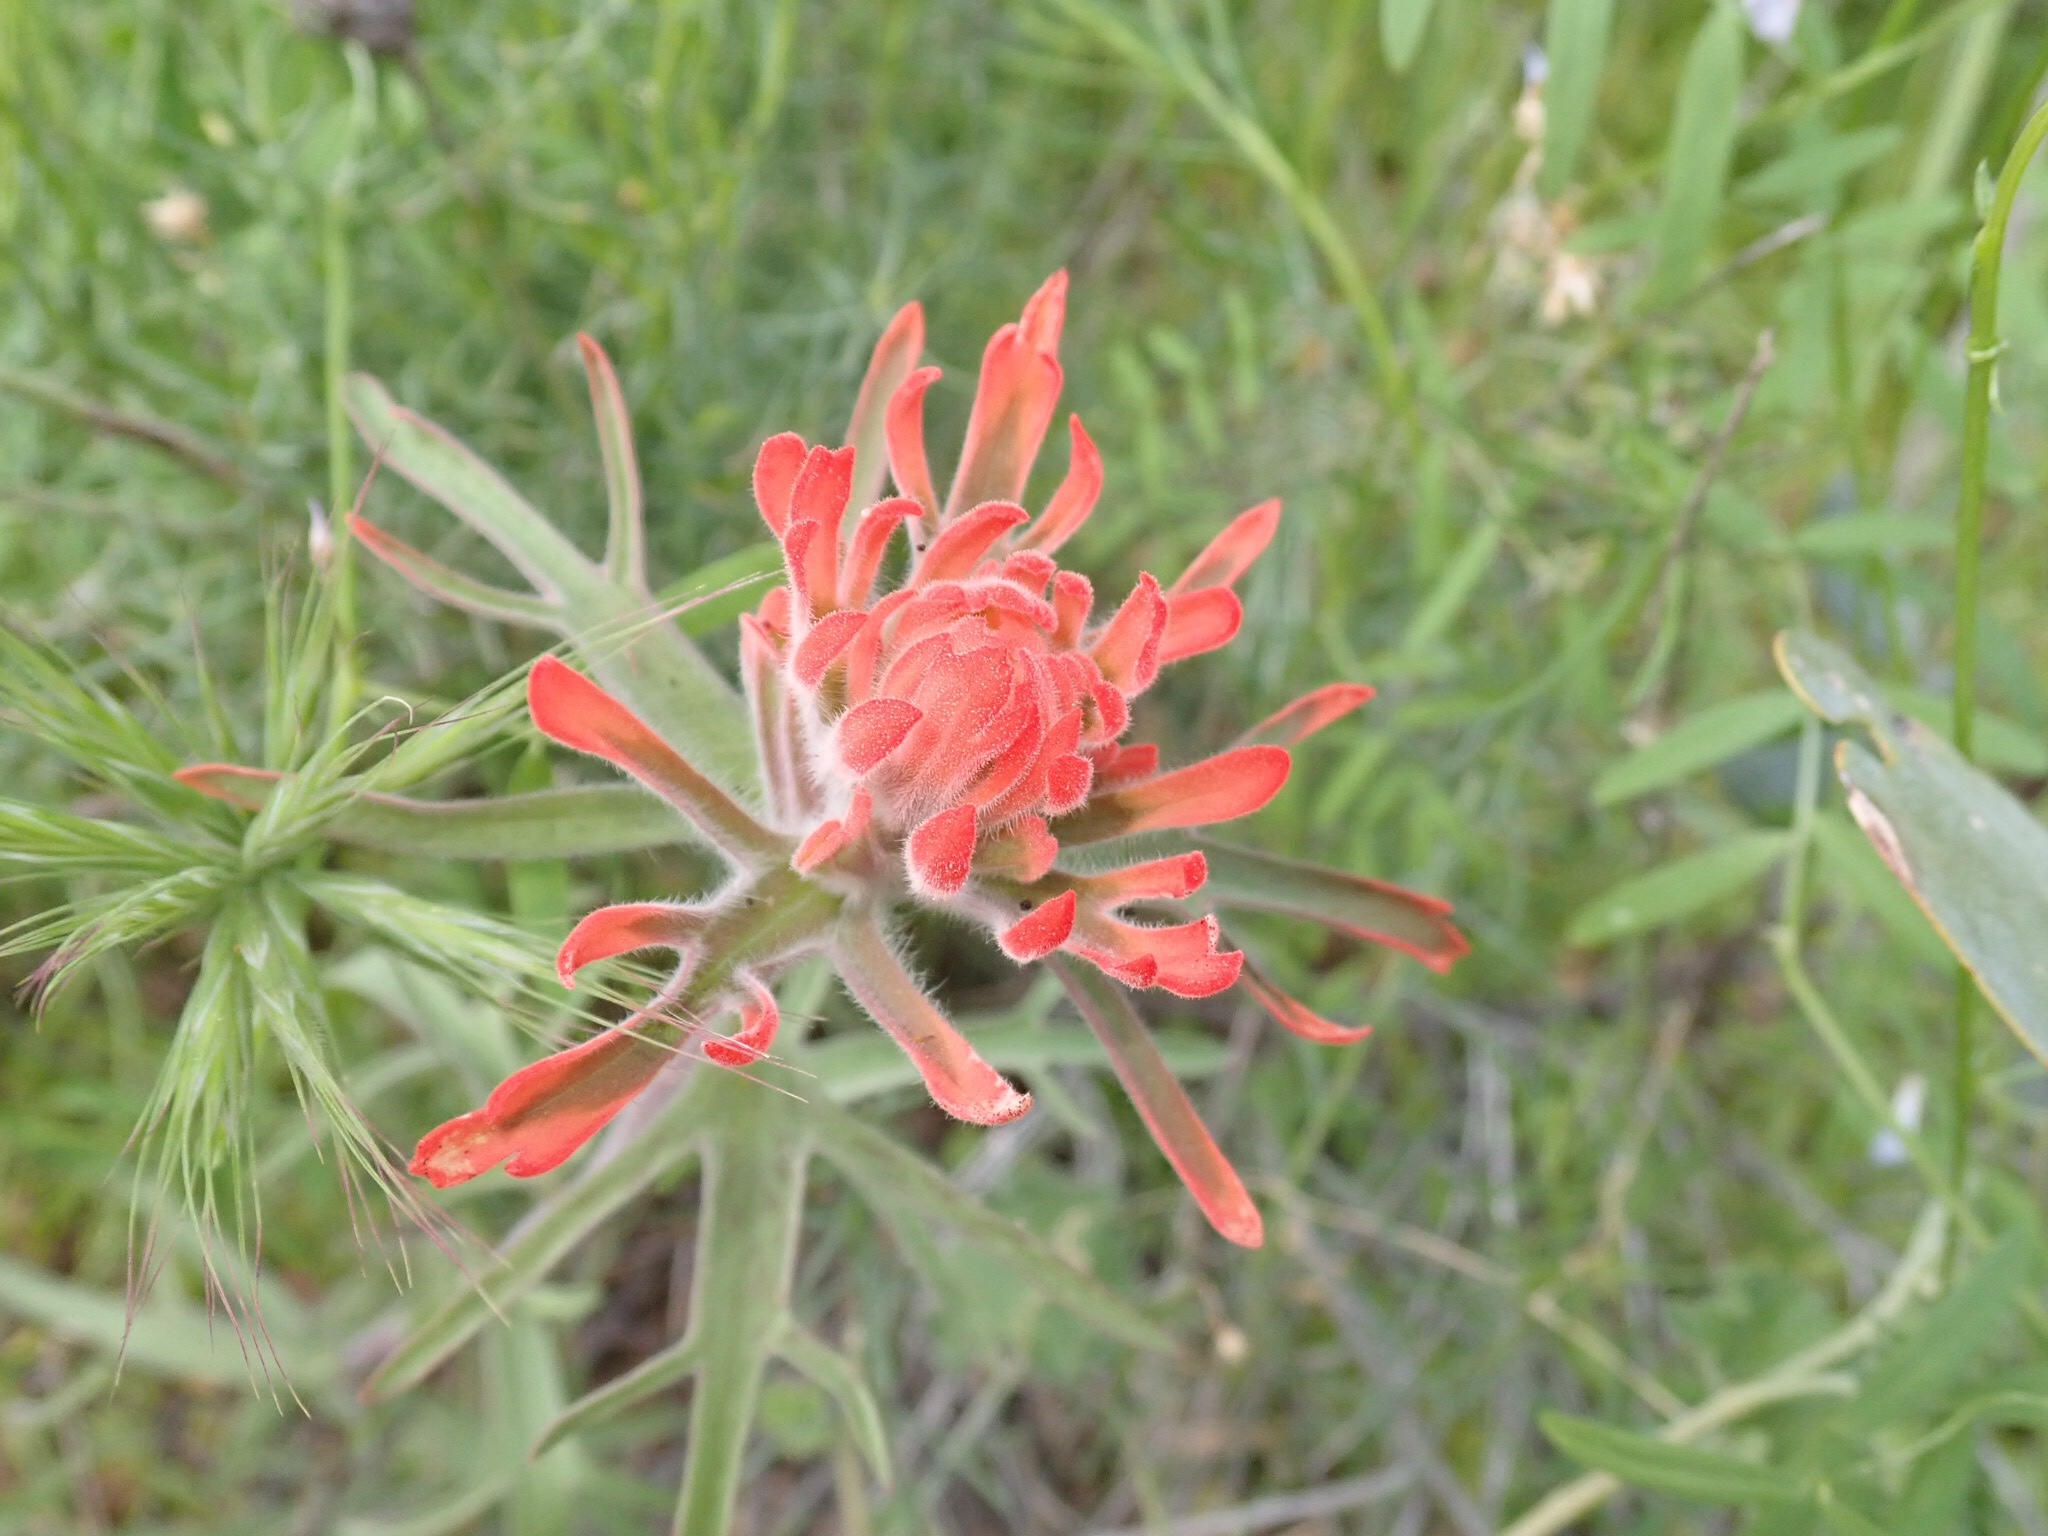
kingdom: Plantae
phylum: Tracheophyta
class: Magnoliopsida
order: Lamiales
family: Orobanchaceae
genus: Castilleja
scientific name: Castilleja chromosa
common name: Desert paintbrush
